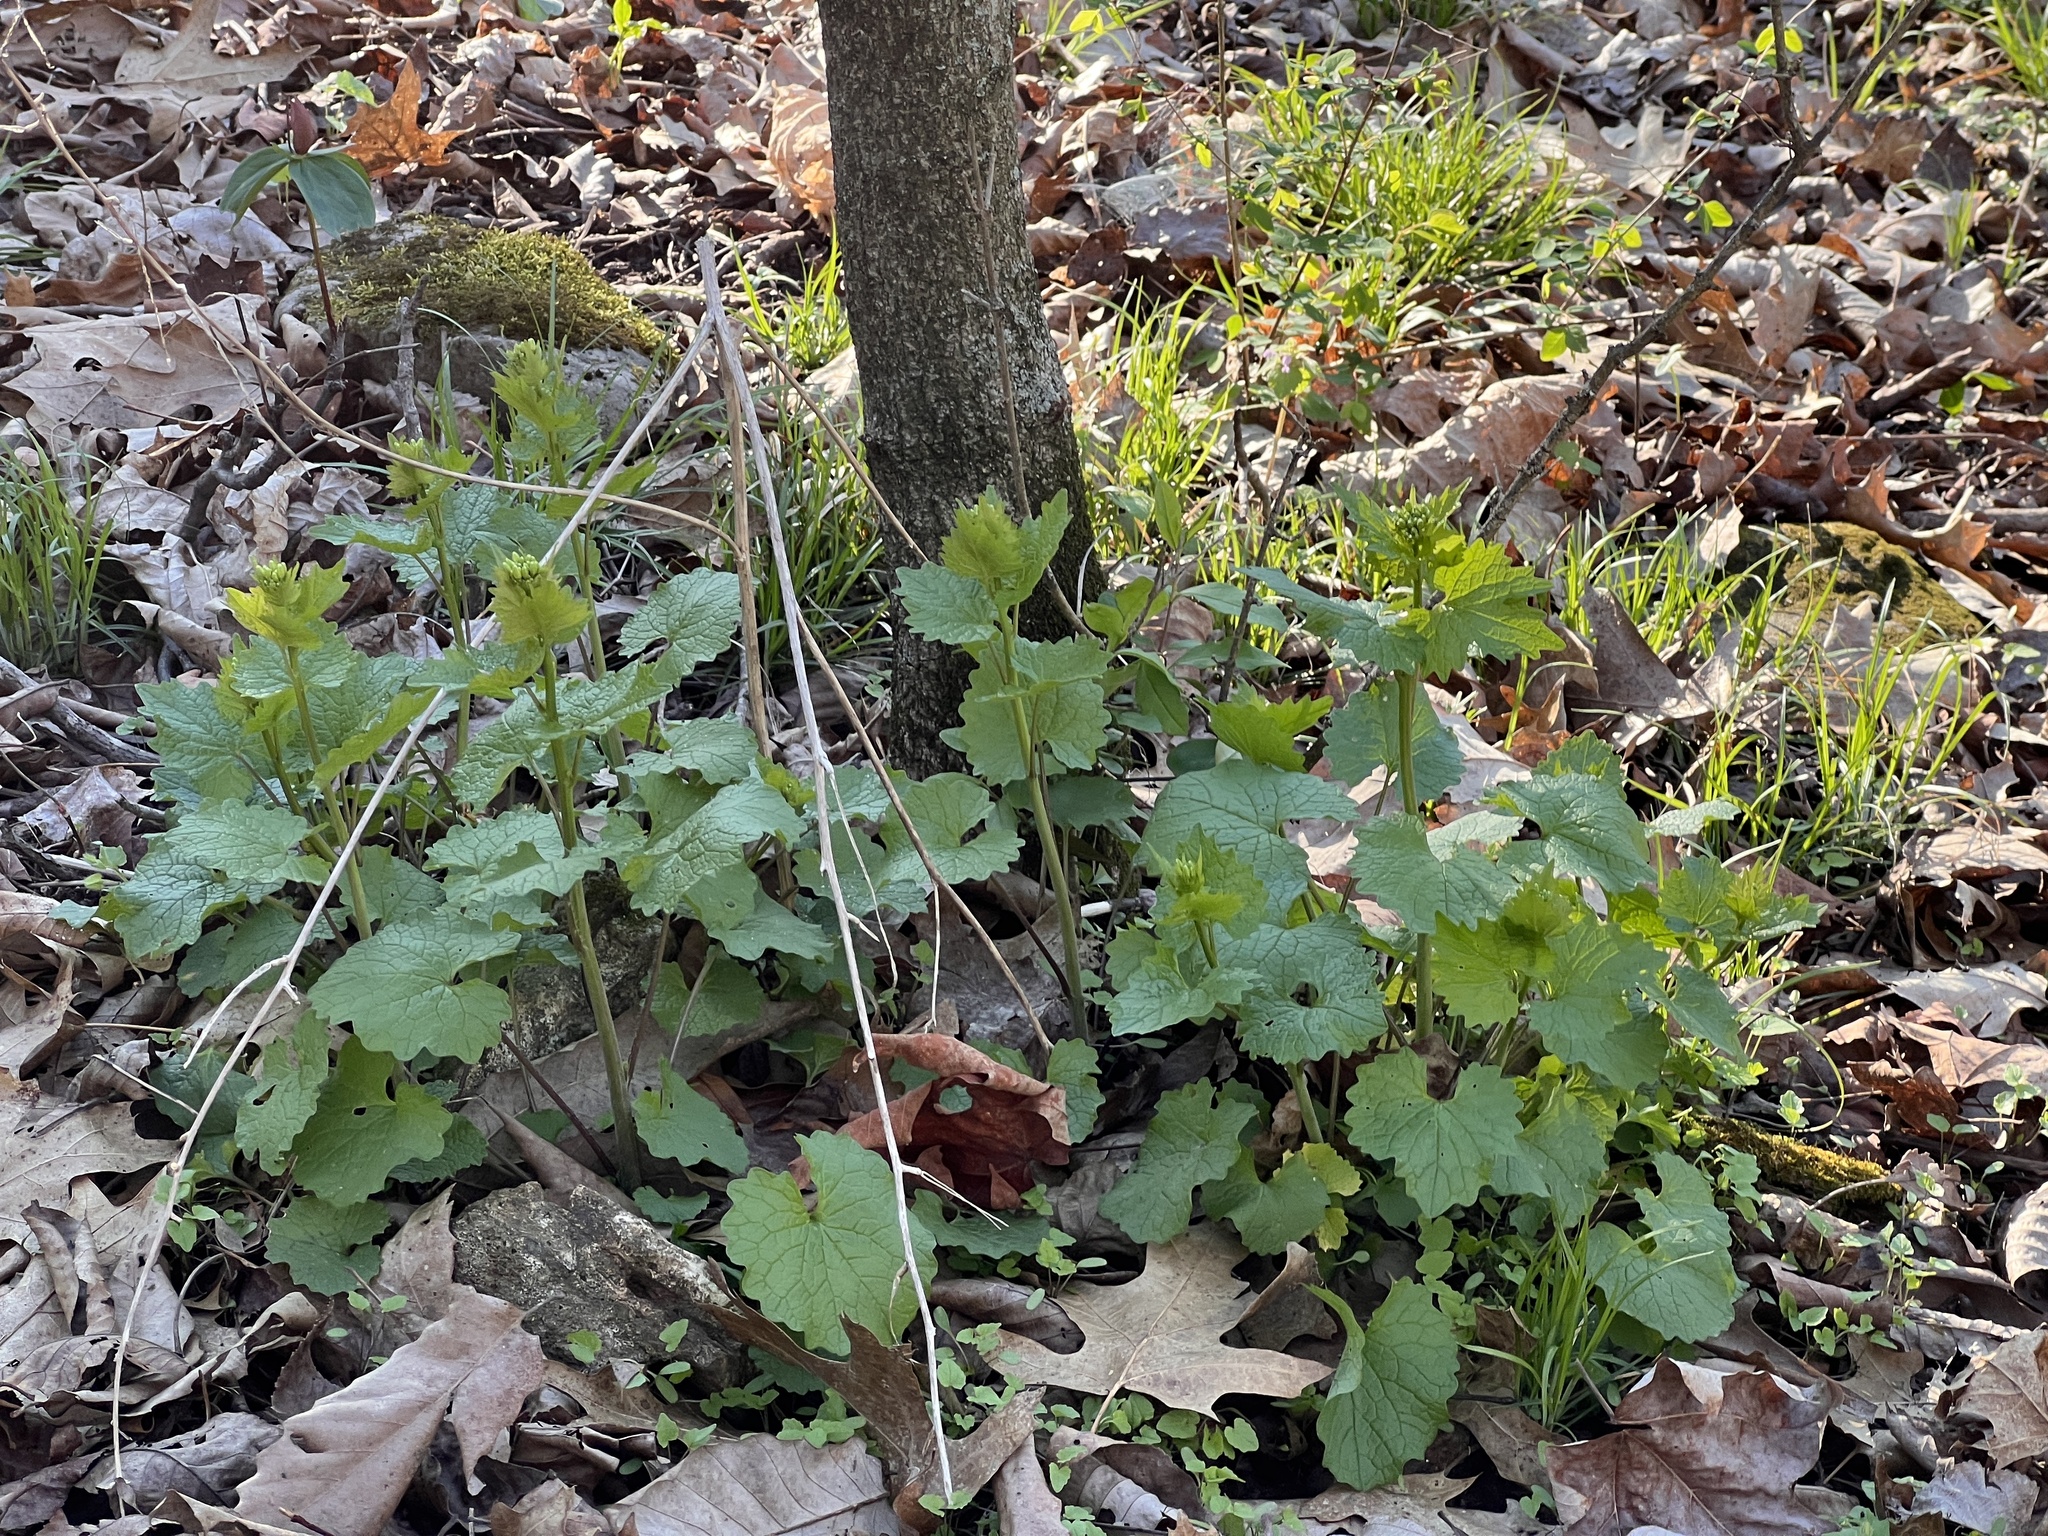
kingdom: Plantae
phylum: Tracheophyta
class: Magnoliopsida
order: Brassicales
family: Brassicaceae
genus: Alliaria
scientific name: Alliaria petiolata
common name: Garlic mustard
